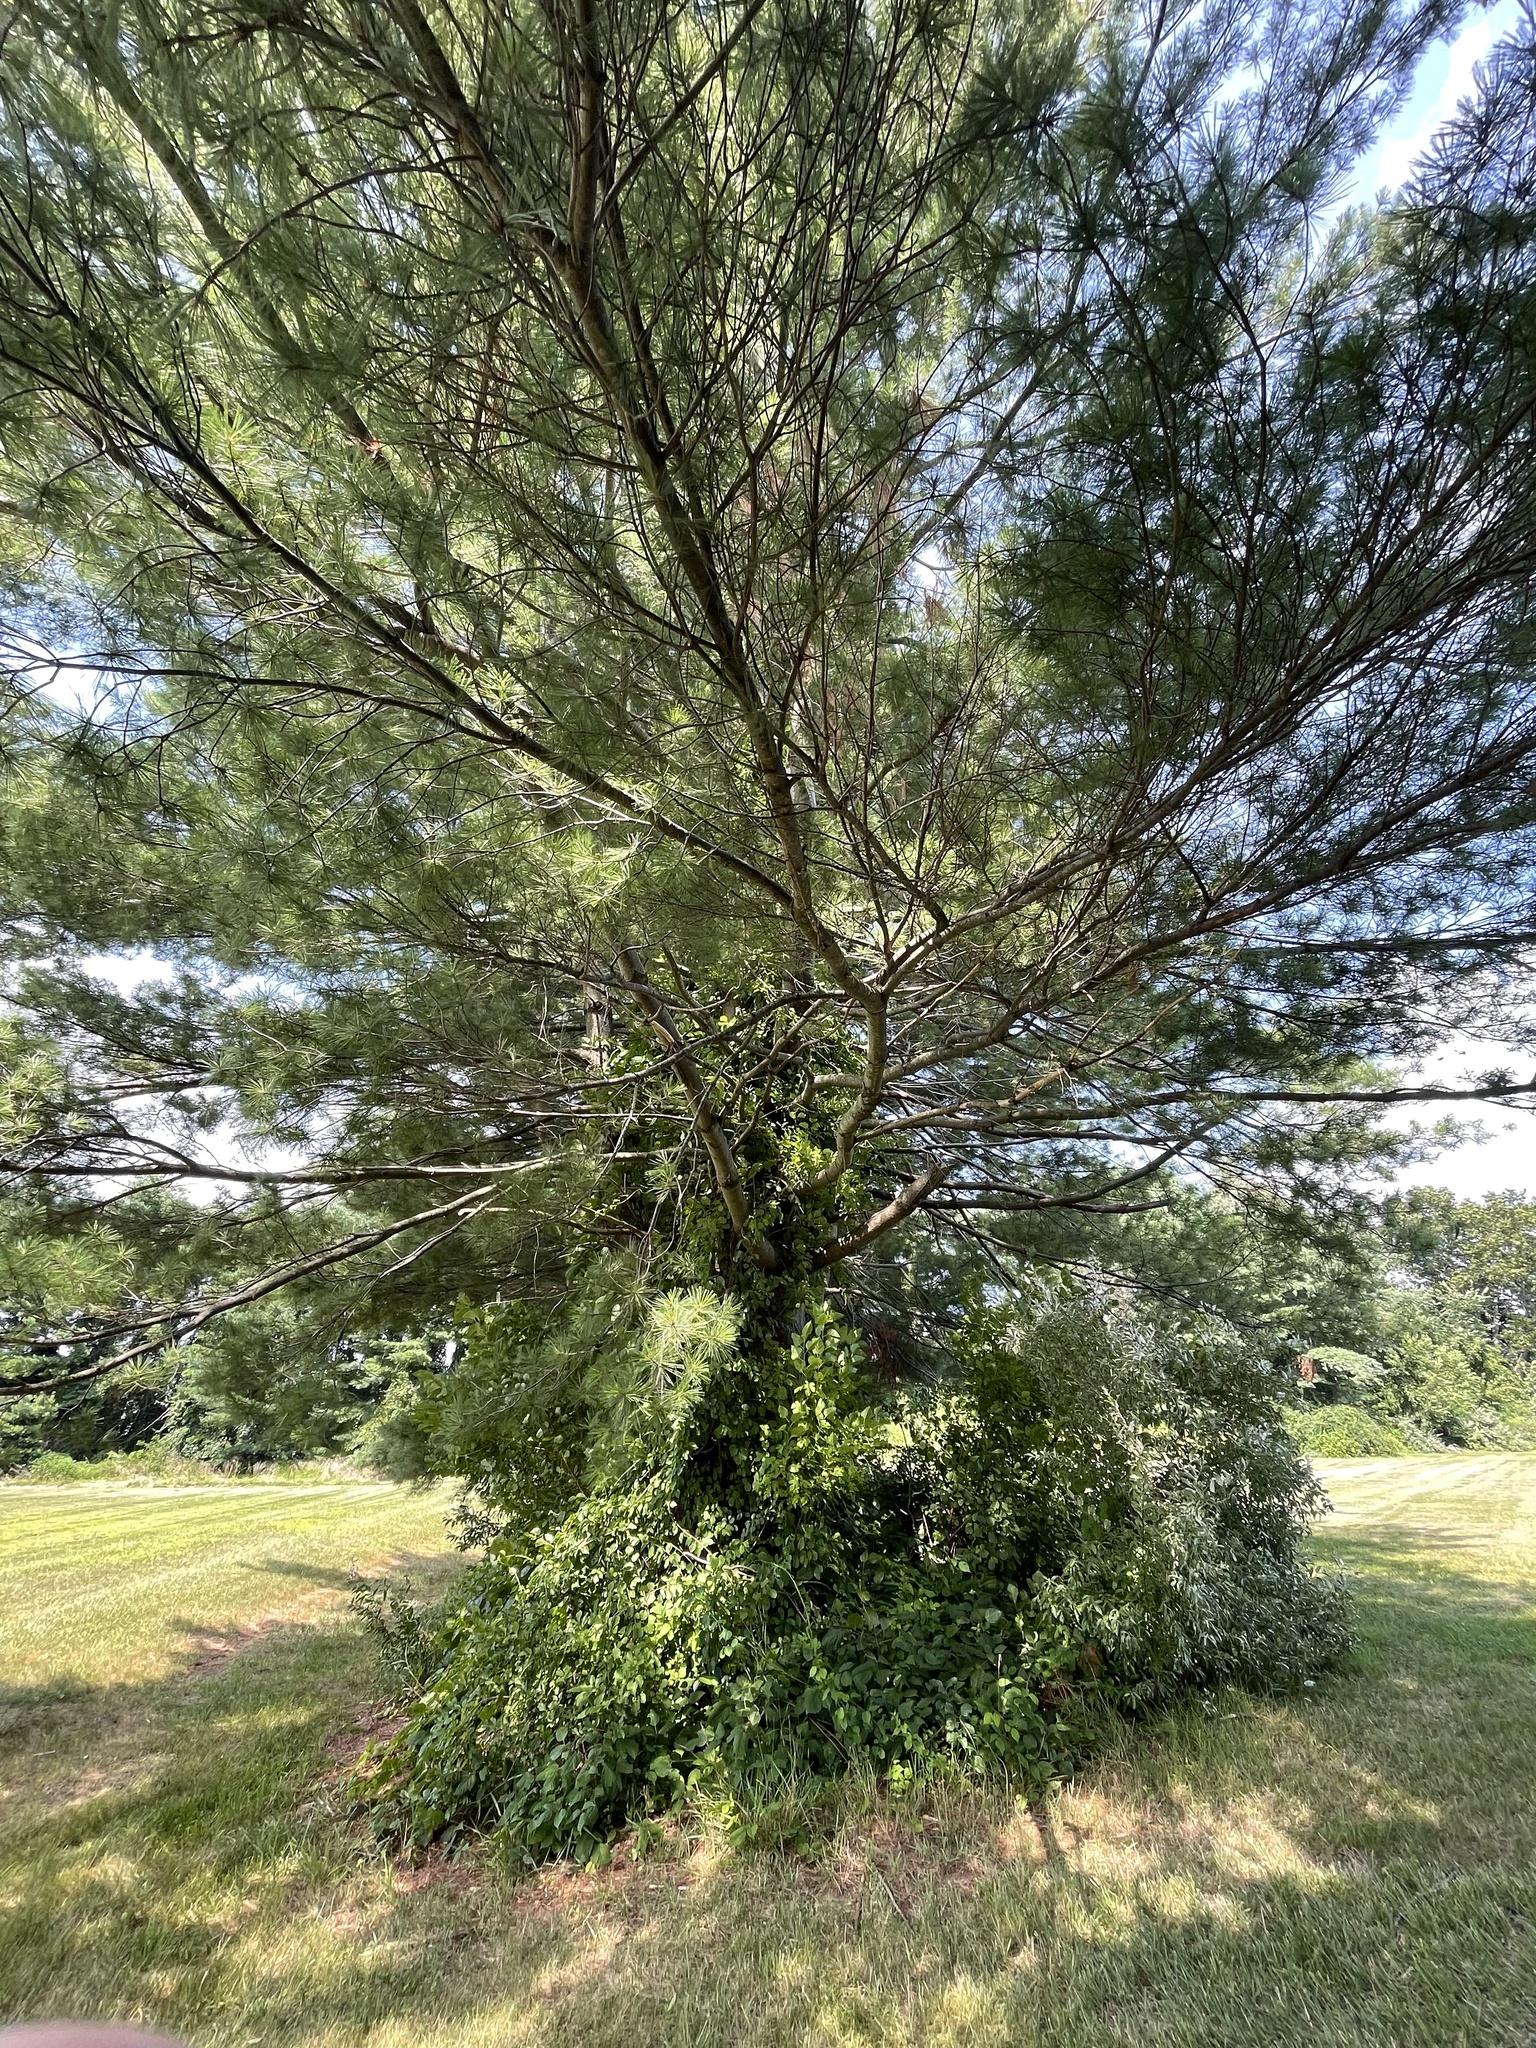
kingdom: Plantae
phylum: Tracheophyta
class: Pinopsida
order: Pinales
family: Pinaceae
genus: Pinus
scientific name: Pinus strobus
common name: Weymouth pine
